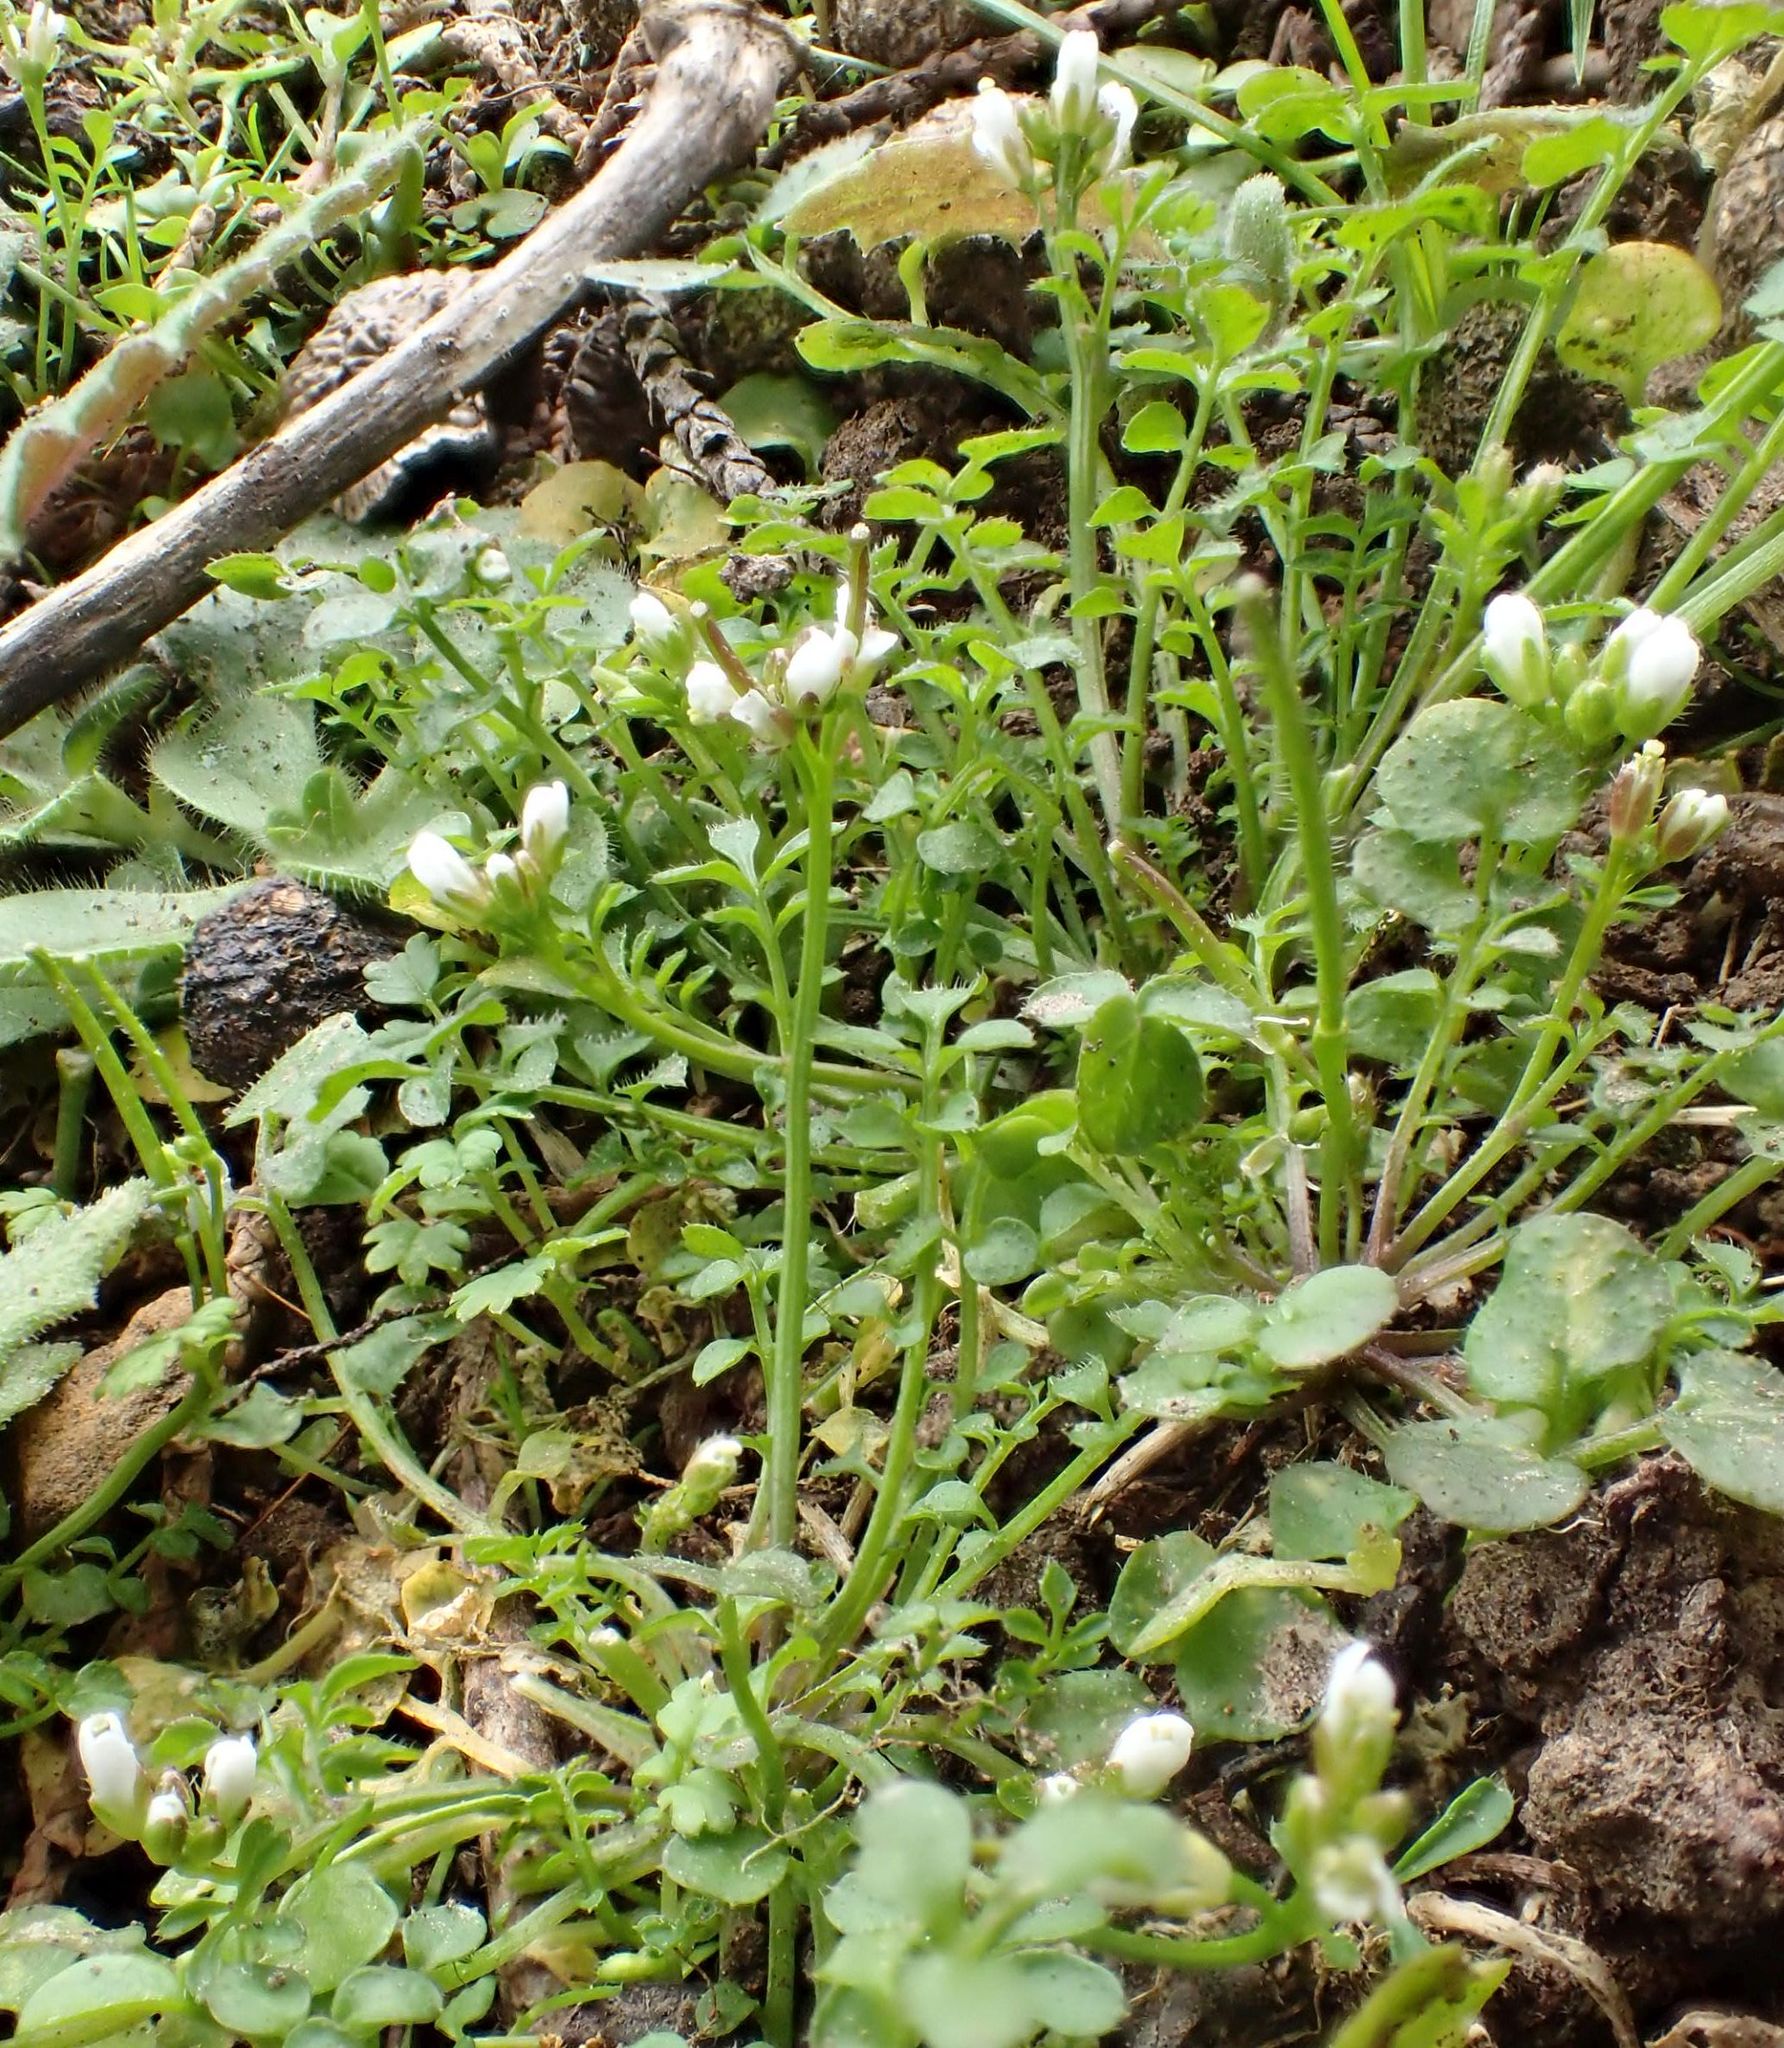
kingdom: Plantae
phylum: Tracheophyta
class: Magnoliopsida
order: Brassicales
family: Brassicaceae
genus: Cardamine
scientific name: Cardamine hirsuta
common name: Hairy bittercress
